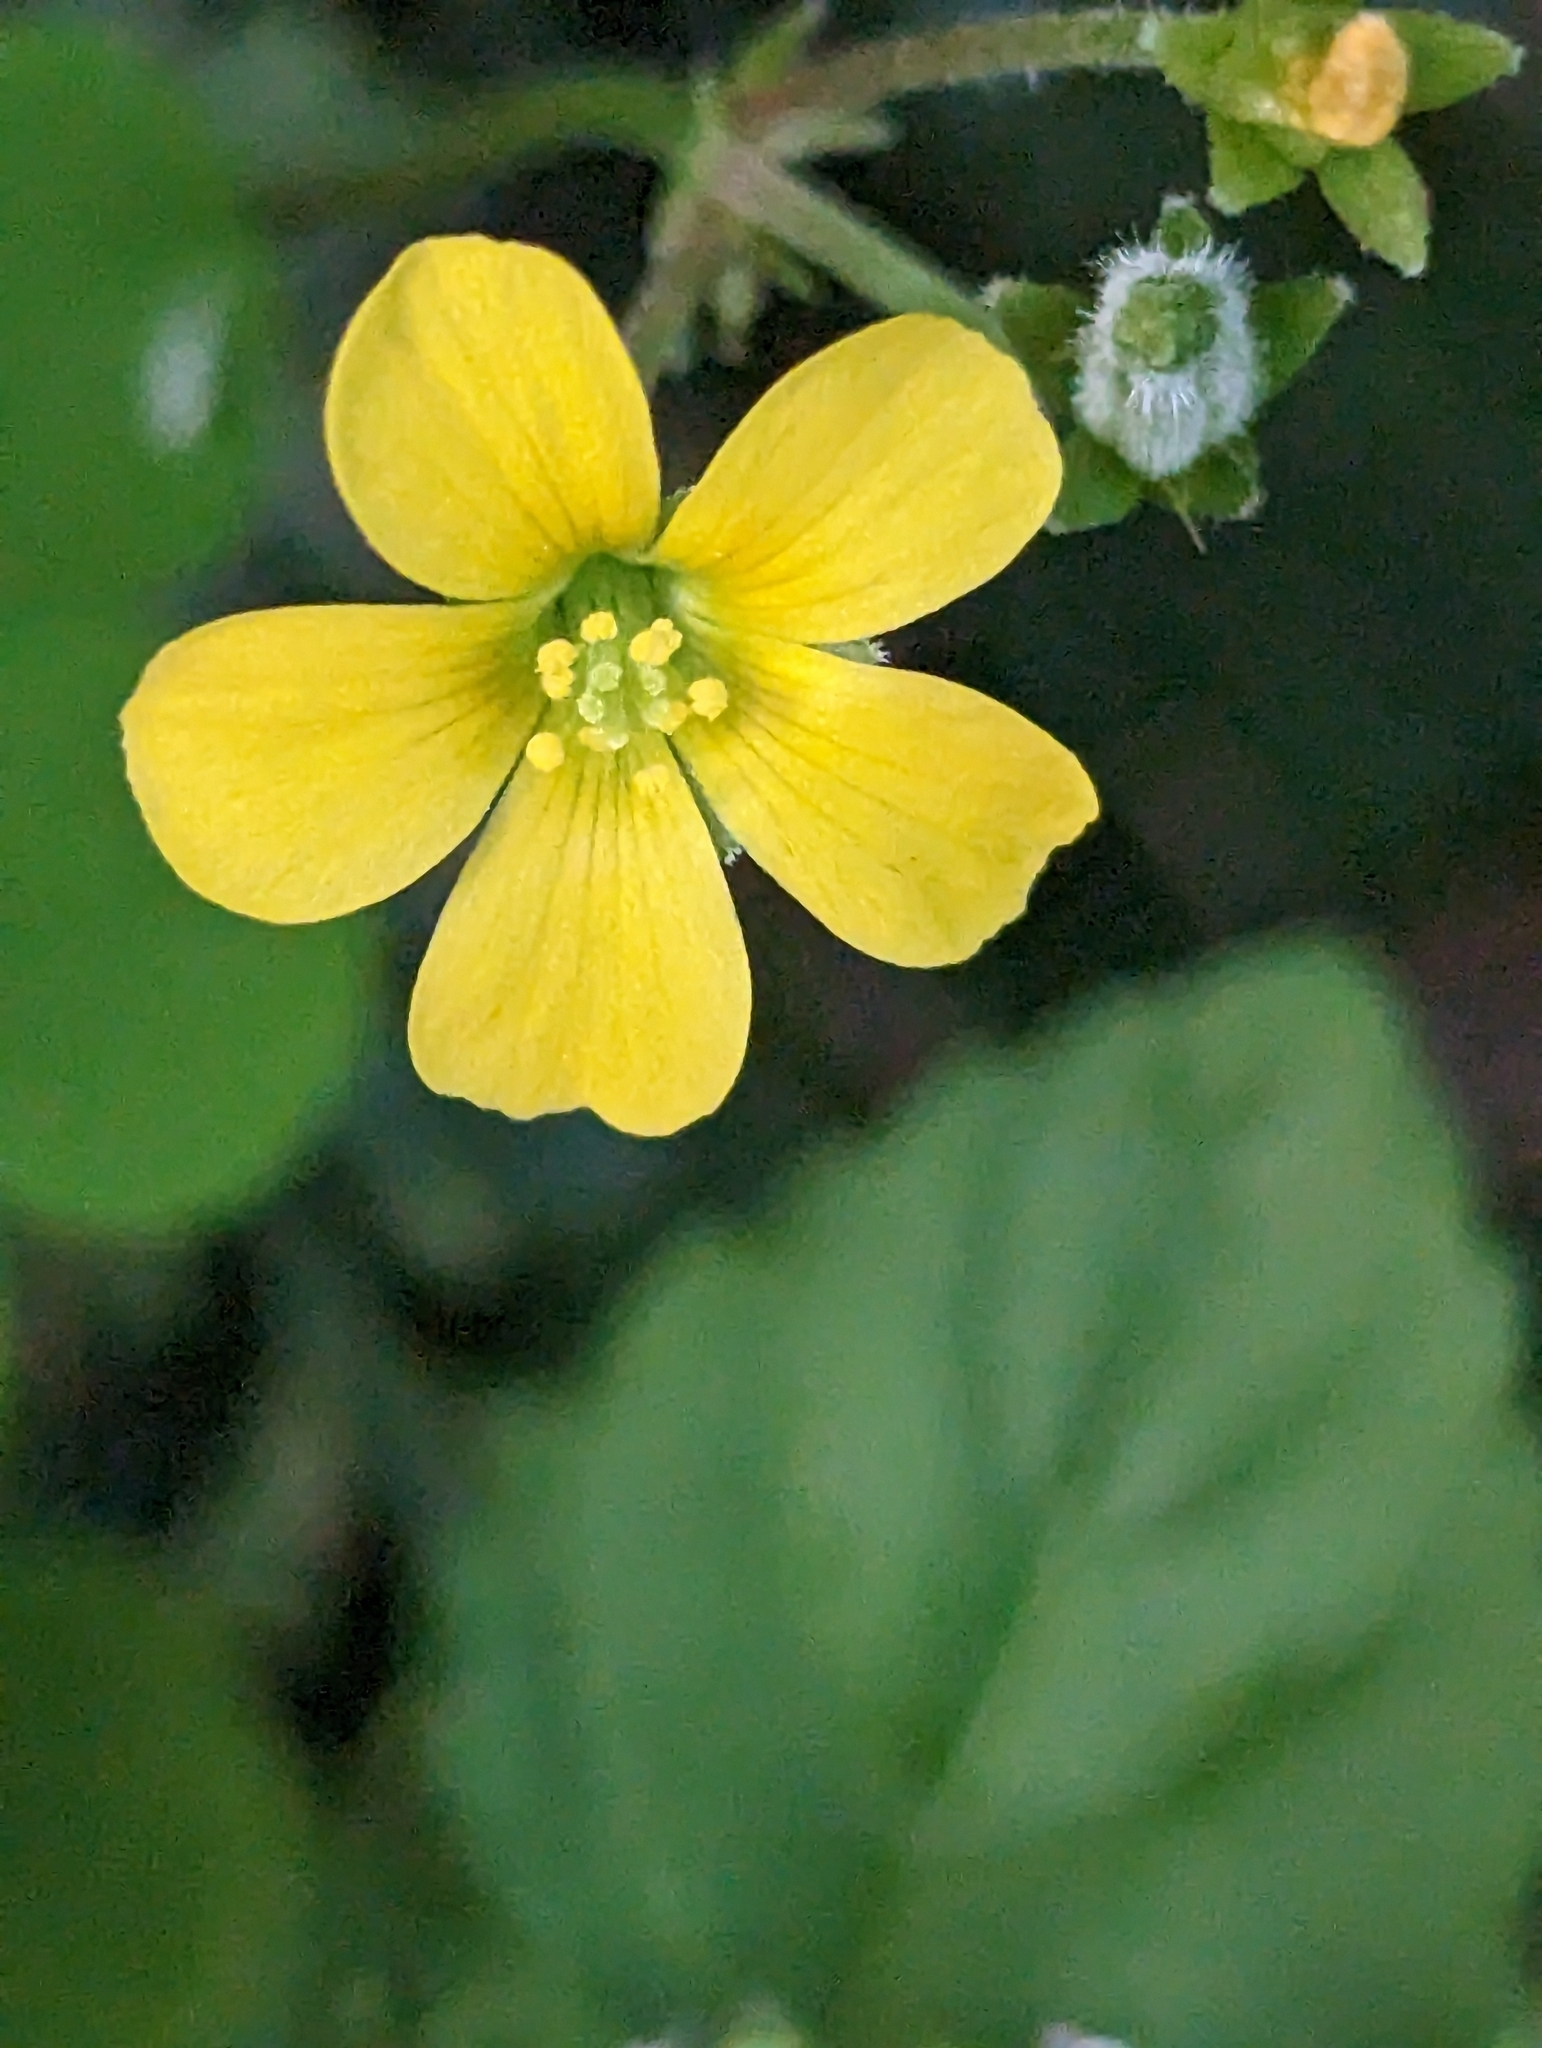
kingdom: Plantae
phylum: Tracheophyta
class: Magnoliopsida
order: Oxalidales
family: Oxalidaceae
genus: Oxalis
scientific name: Oxalis corniculata
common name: Procumbent yellow-sorrel
